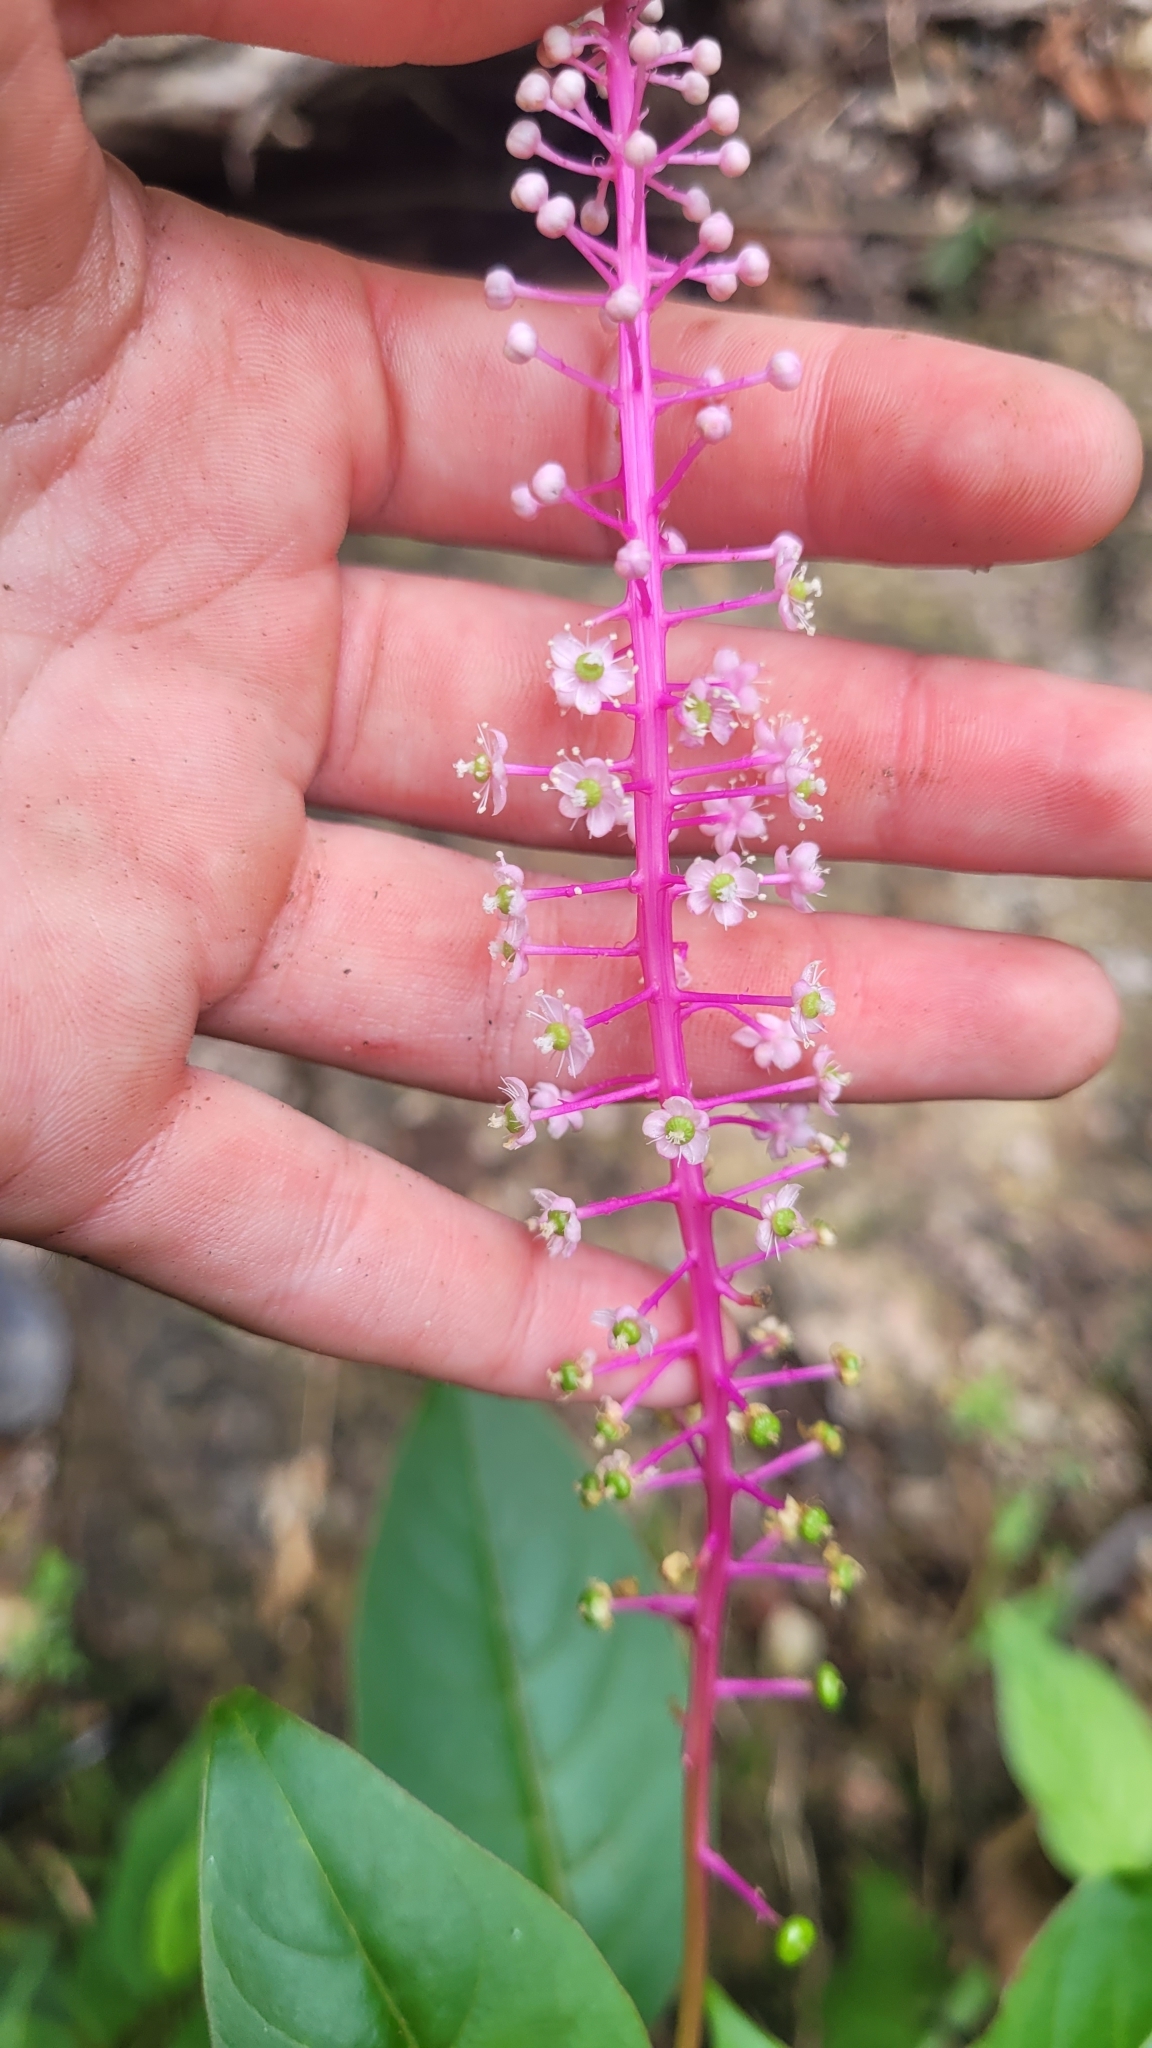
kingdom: Plantae
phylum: Tracheophyta
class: Magnoliopsida
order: Caryophyllales
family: Phytolaccaceae
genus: Phytolacca
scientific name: Phytolacca rivinoides
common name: Venezuelan pokeweed
